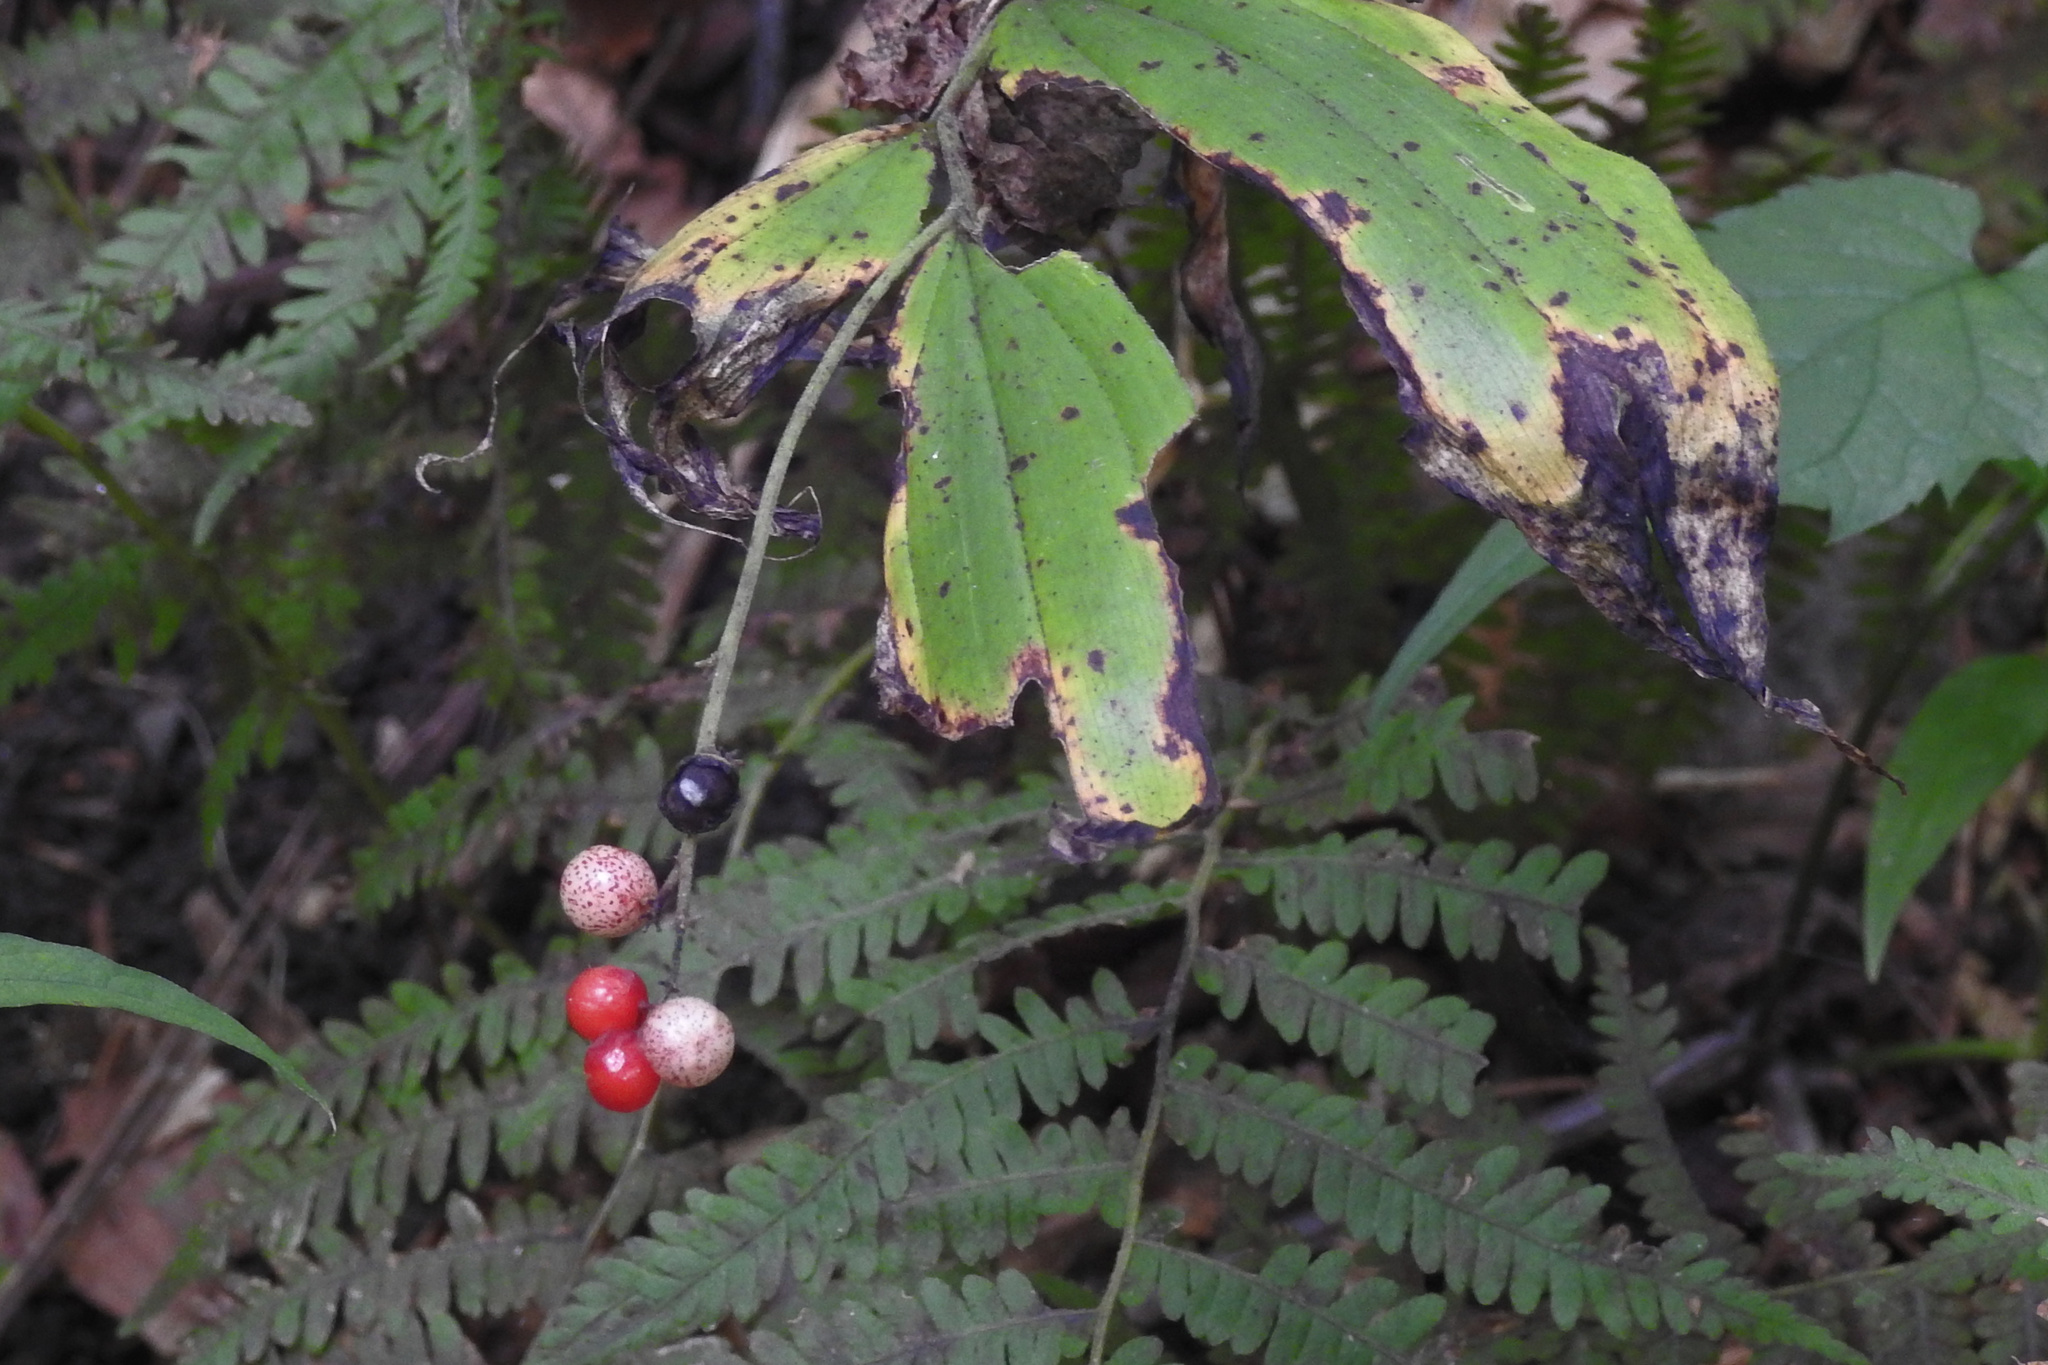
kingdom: Plantae
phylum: Tracheophyta
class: Liliopsida
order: Asparagales
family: Asparagaceae
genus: Maianthemum
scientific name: Maianthemum racemosum
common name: False spikenard
